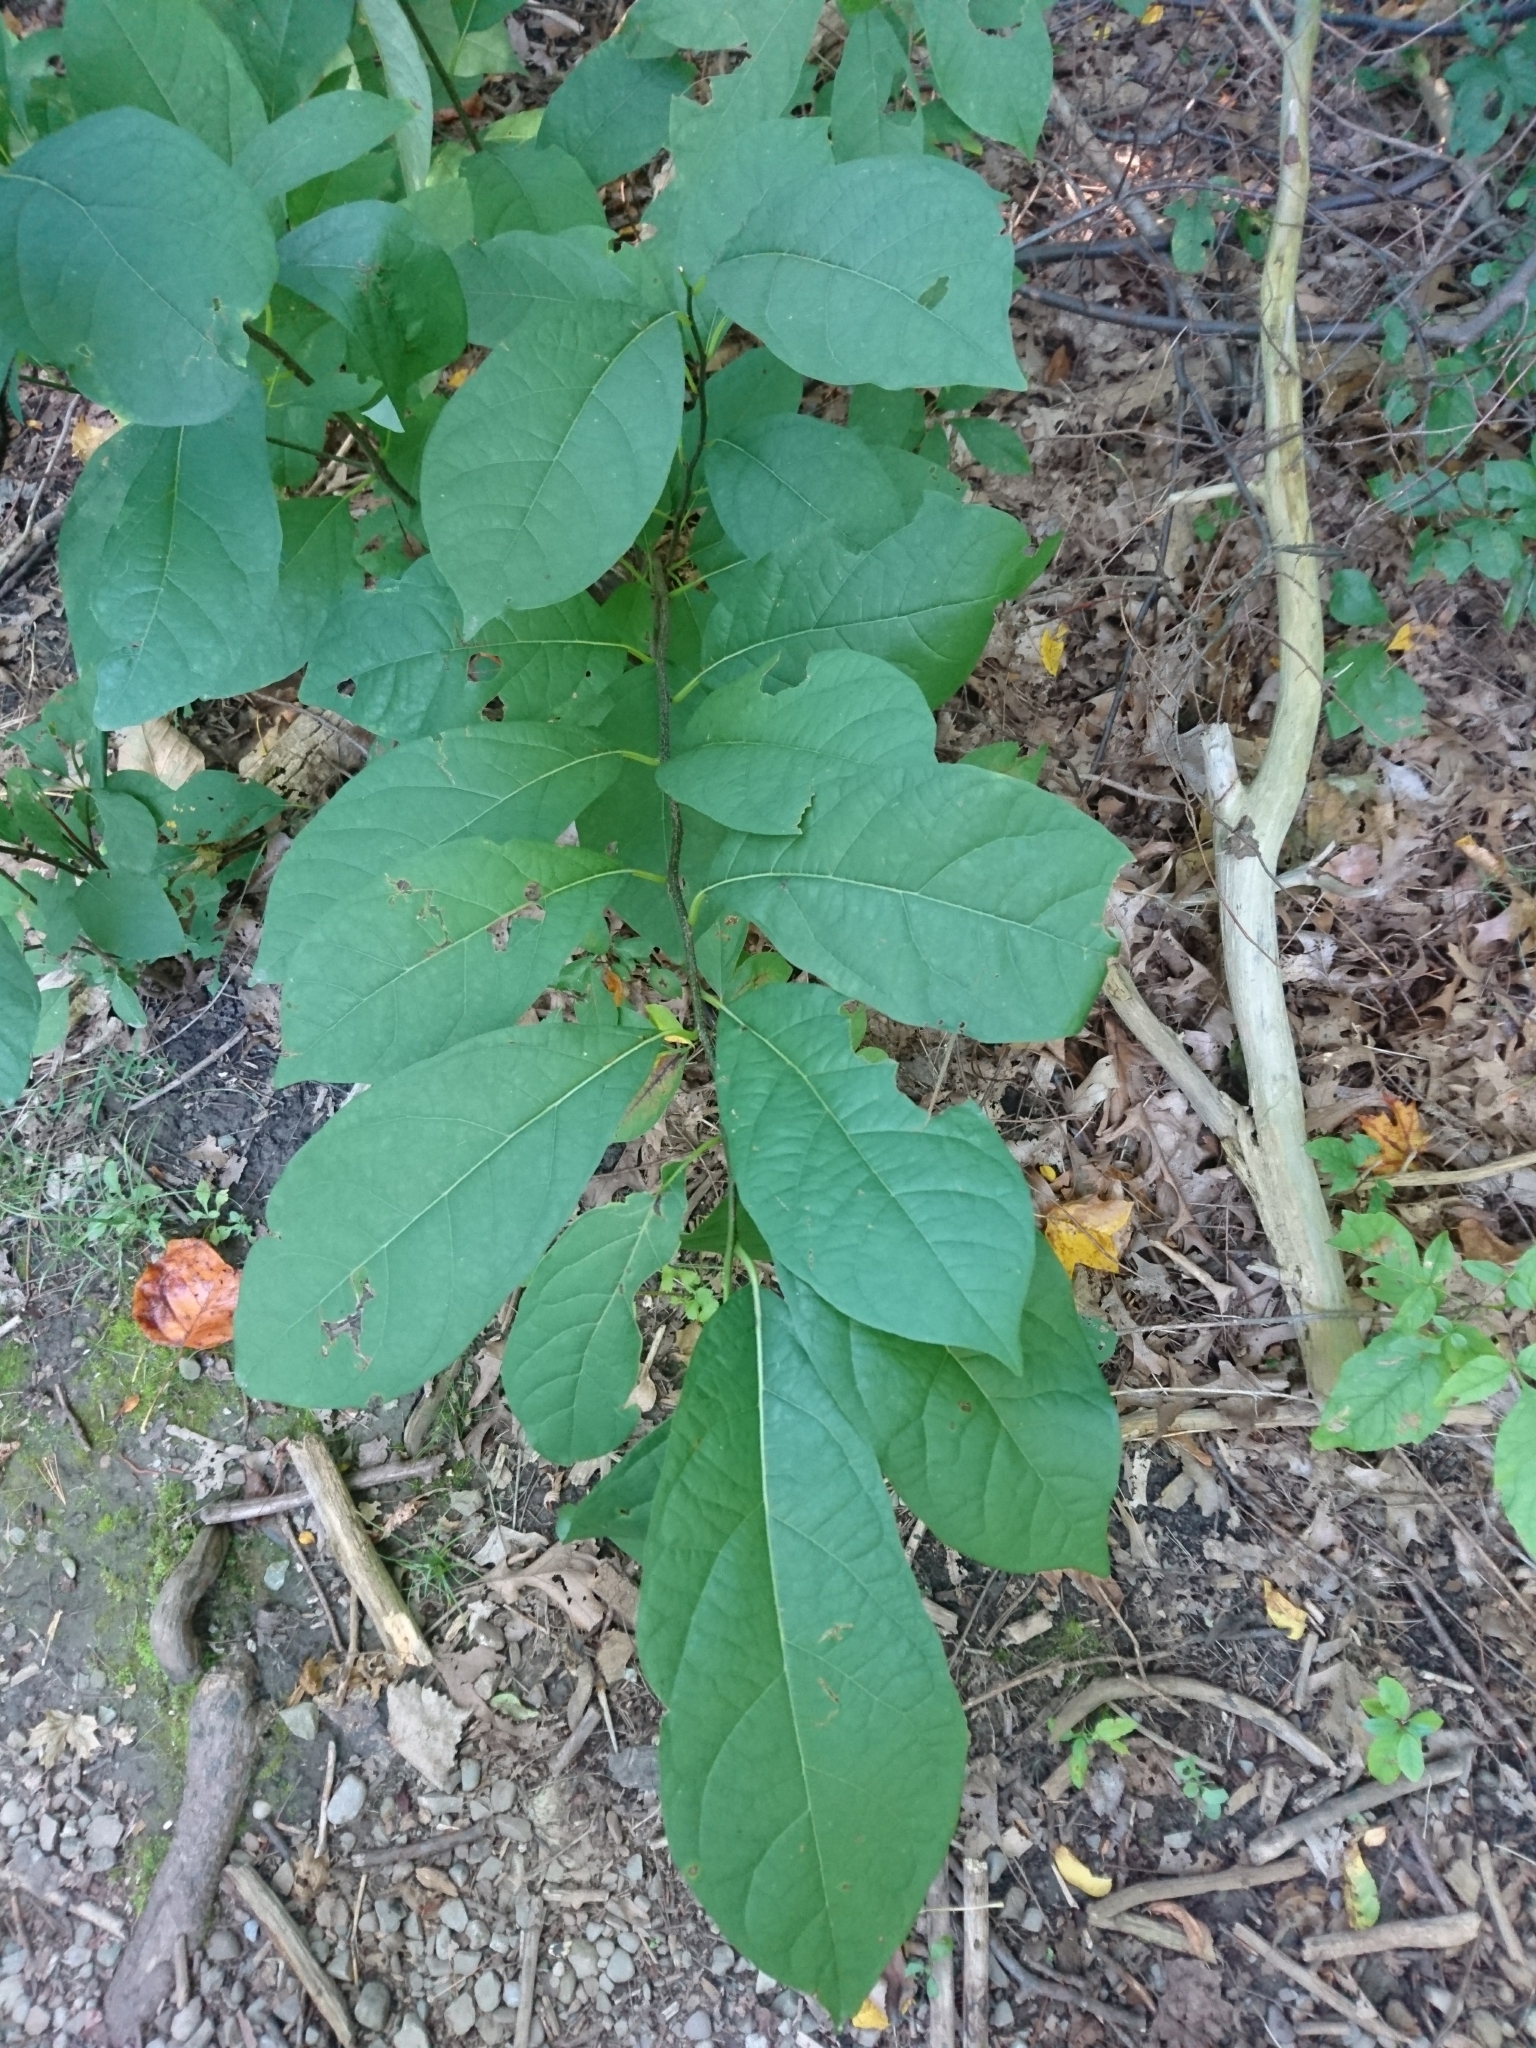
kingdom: Plantae
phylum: Tracheophyta
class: Magnoliopsida
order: Laurales
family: Lauraceae
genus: Lindera
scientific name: Lindera benzoin
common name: Spicebush
